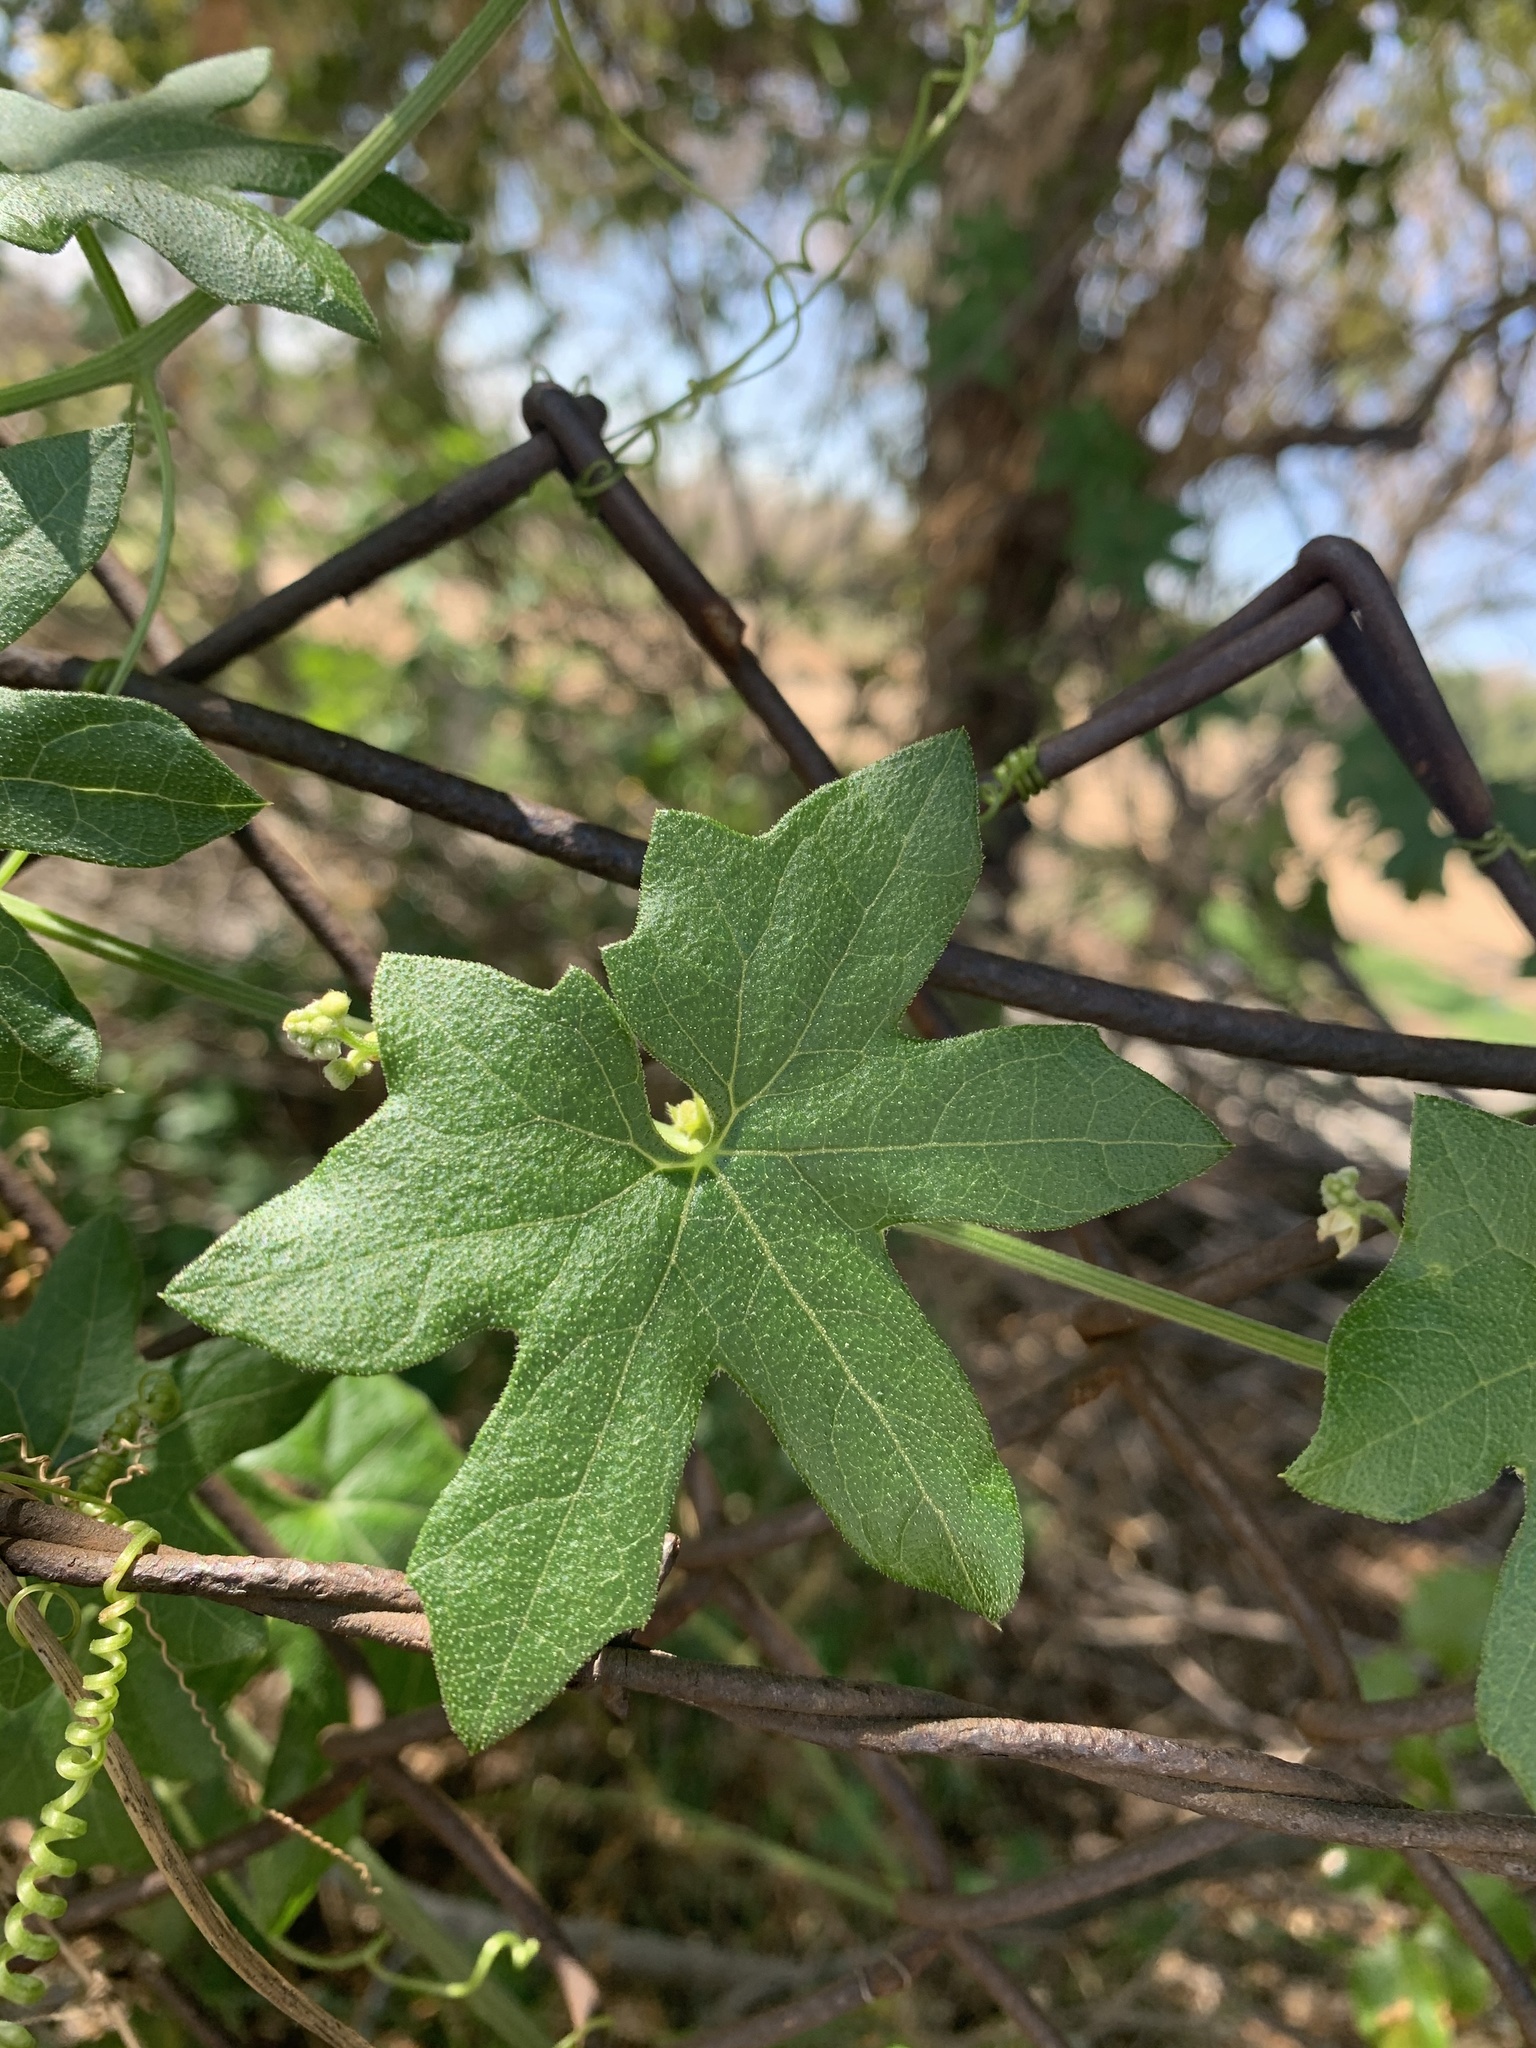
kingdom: Plantae
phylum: Tracheophyta
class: Magnoliopsida
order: Cucurbitales
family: Cucurbitaceae
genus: Marah
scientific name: Marah macrocarpa
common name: Cucamonga manroot
